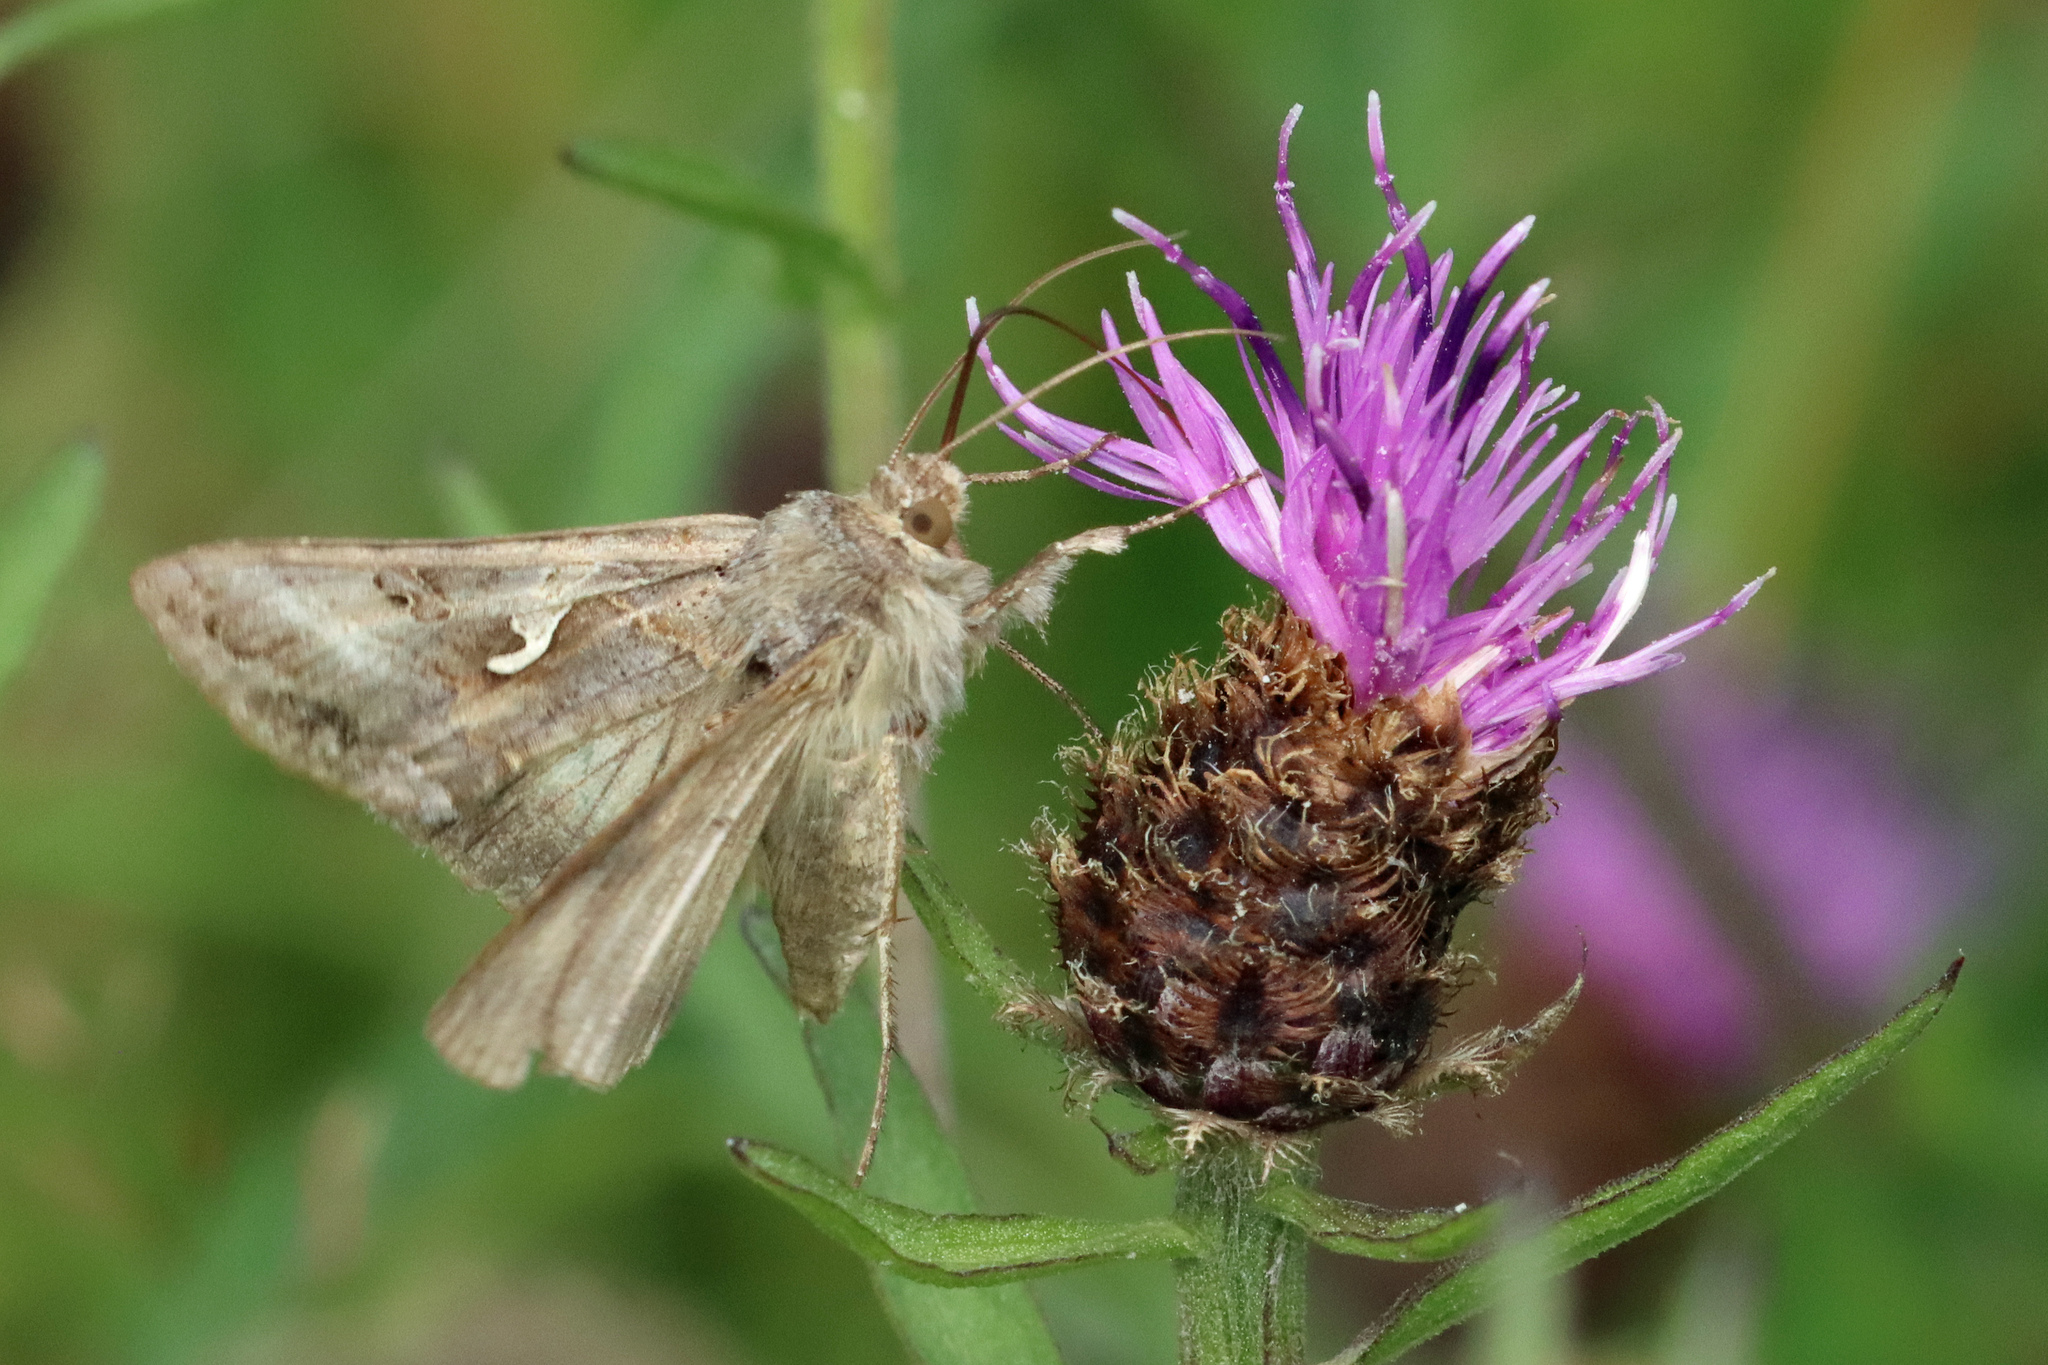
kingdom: Animalia
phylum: Arthropoda
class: Insecta
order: Lepidoptera
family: Noctuidae
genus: Autographa
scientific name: Autographa gamma
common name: Silver y
